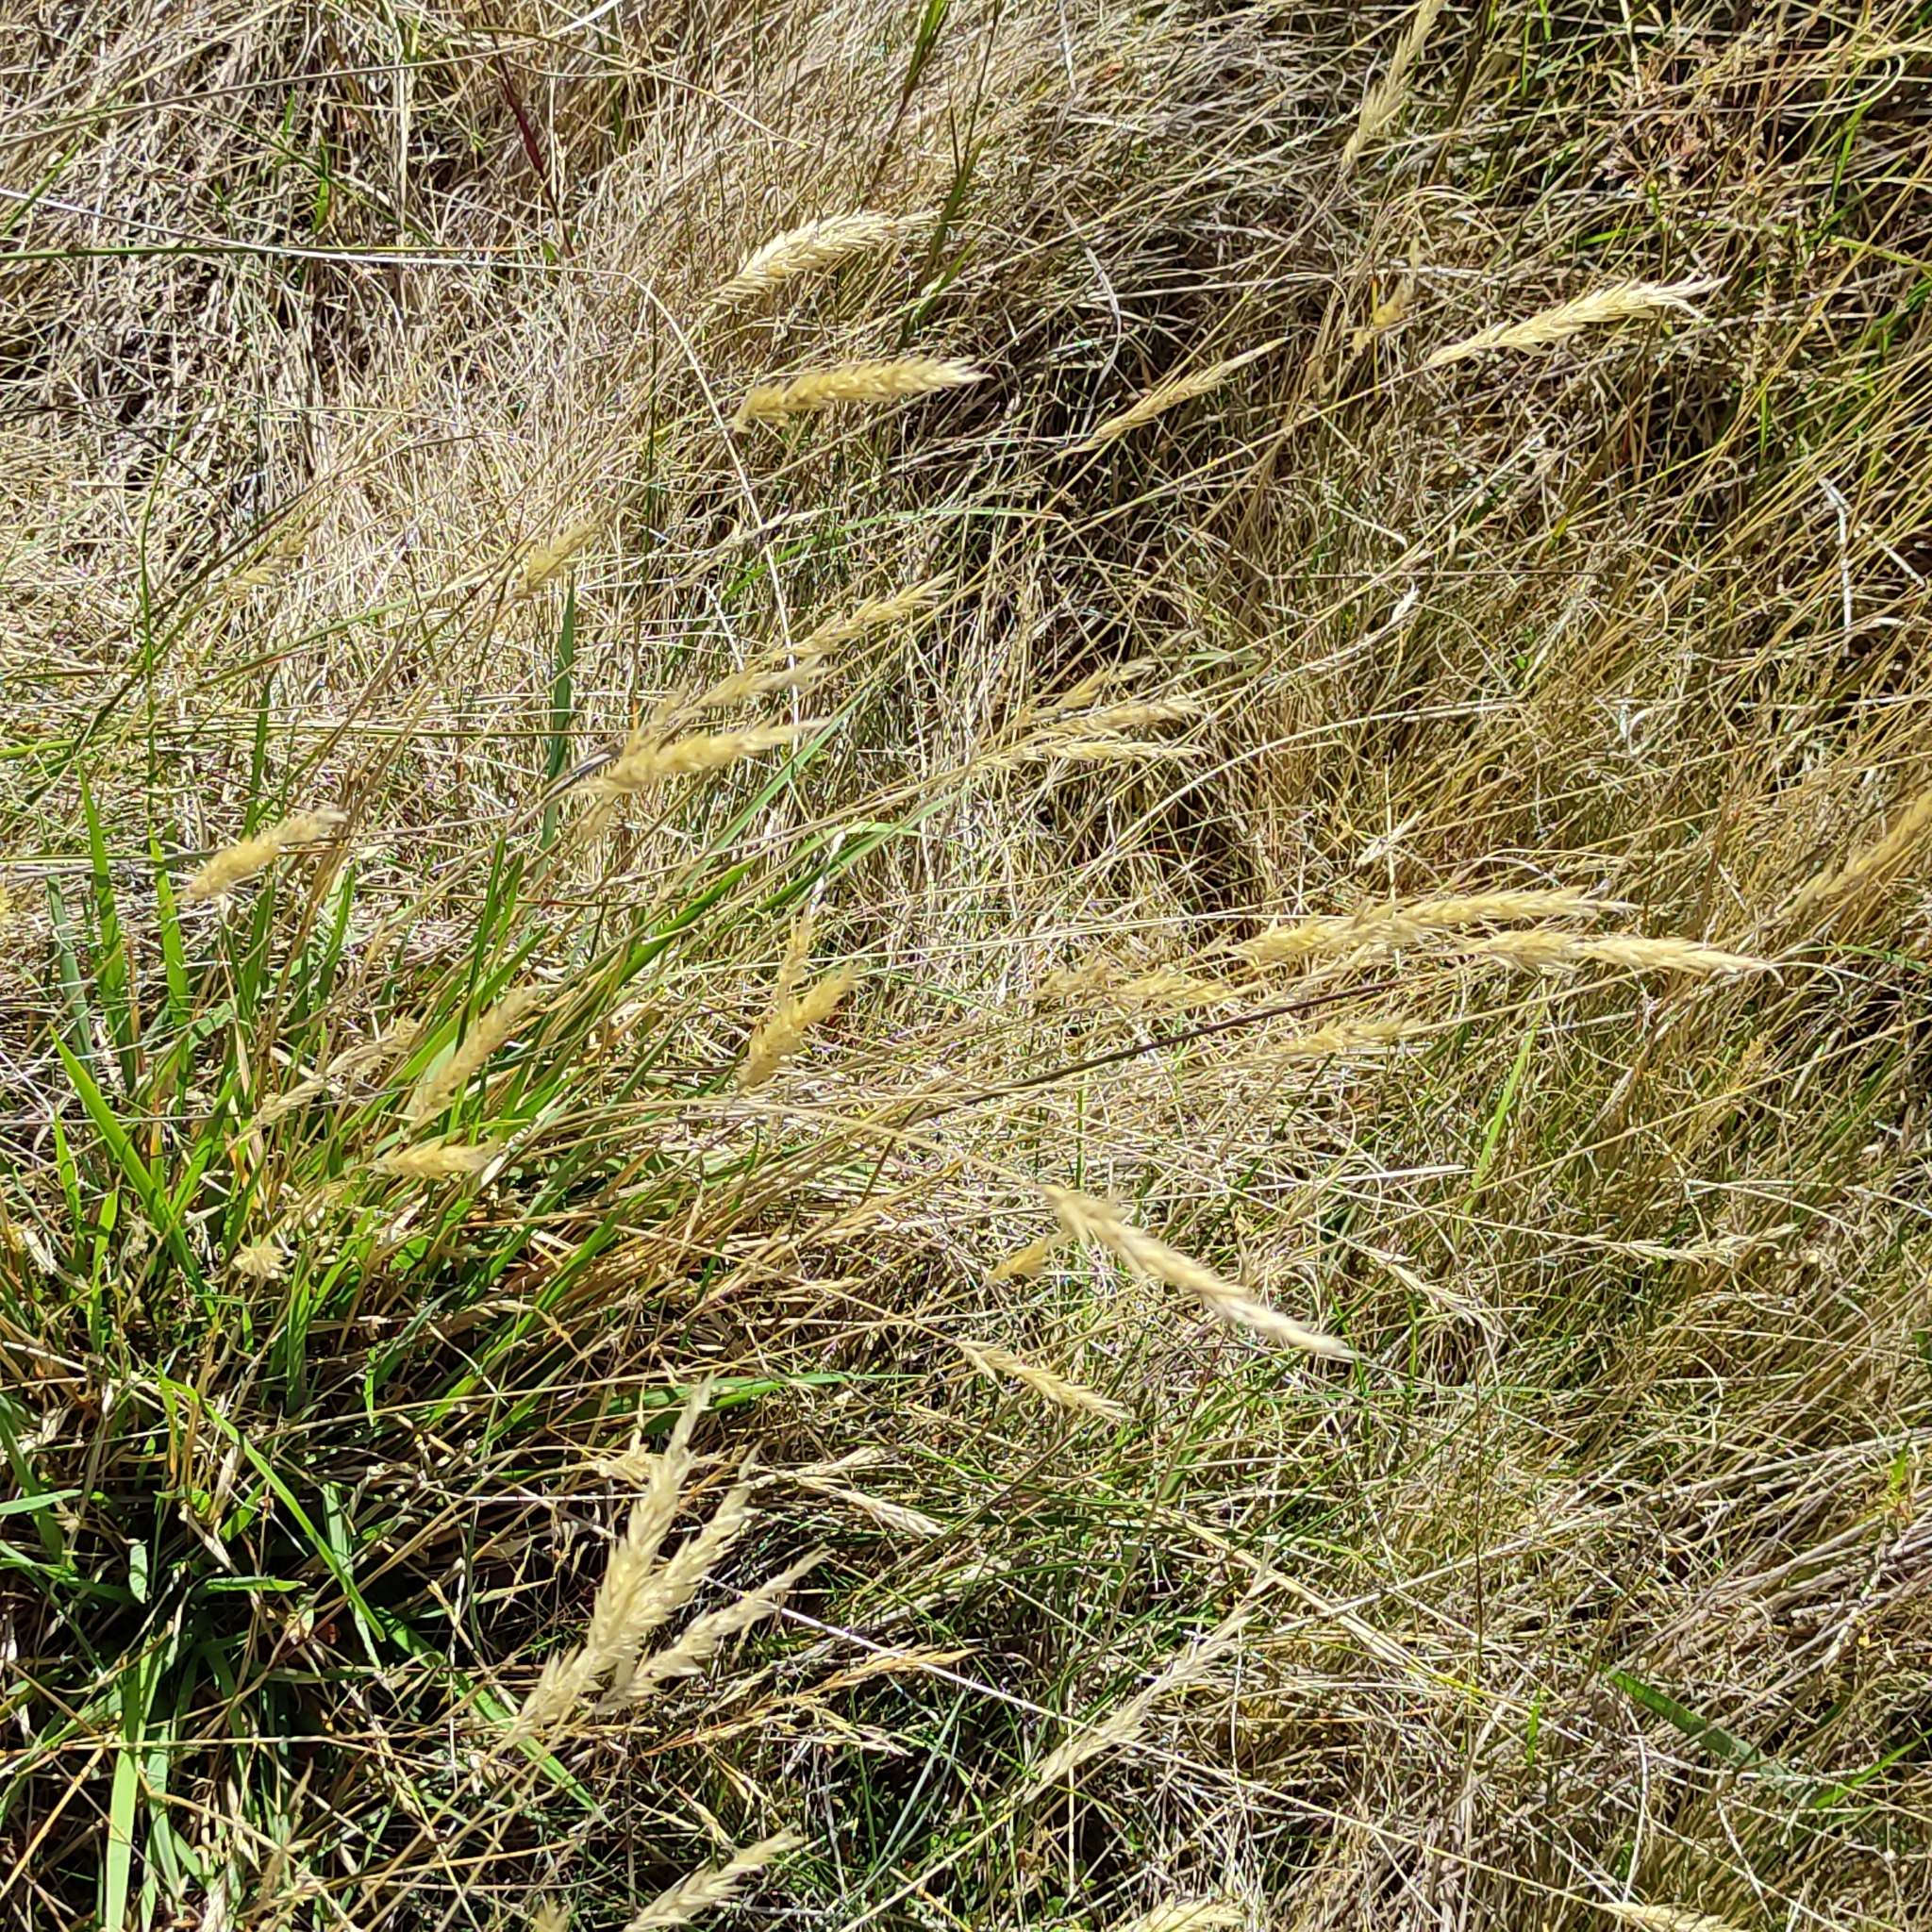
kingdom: Plantae
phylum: Tracheophyta
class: Liliopsida
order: Poales
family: Poaceae
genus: Anthoxanthum
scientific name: Anthoxanthum odoratum
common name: Sweet vernalgrass
